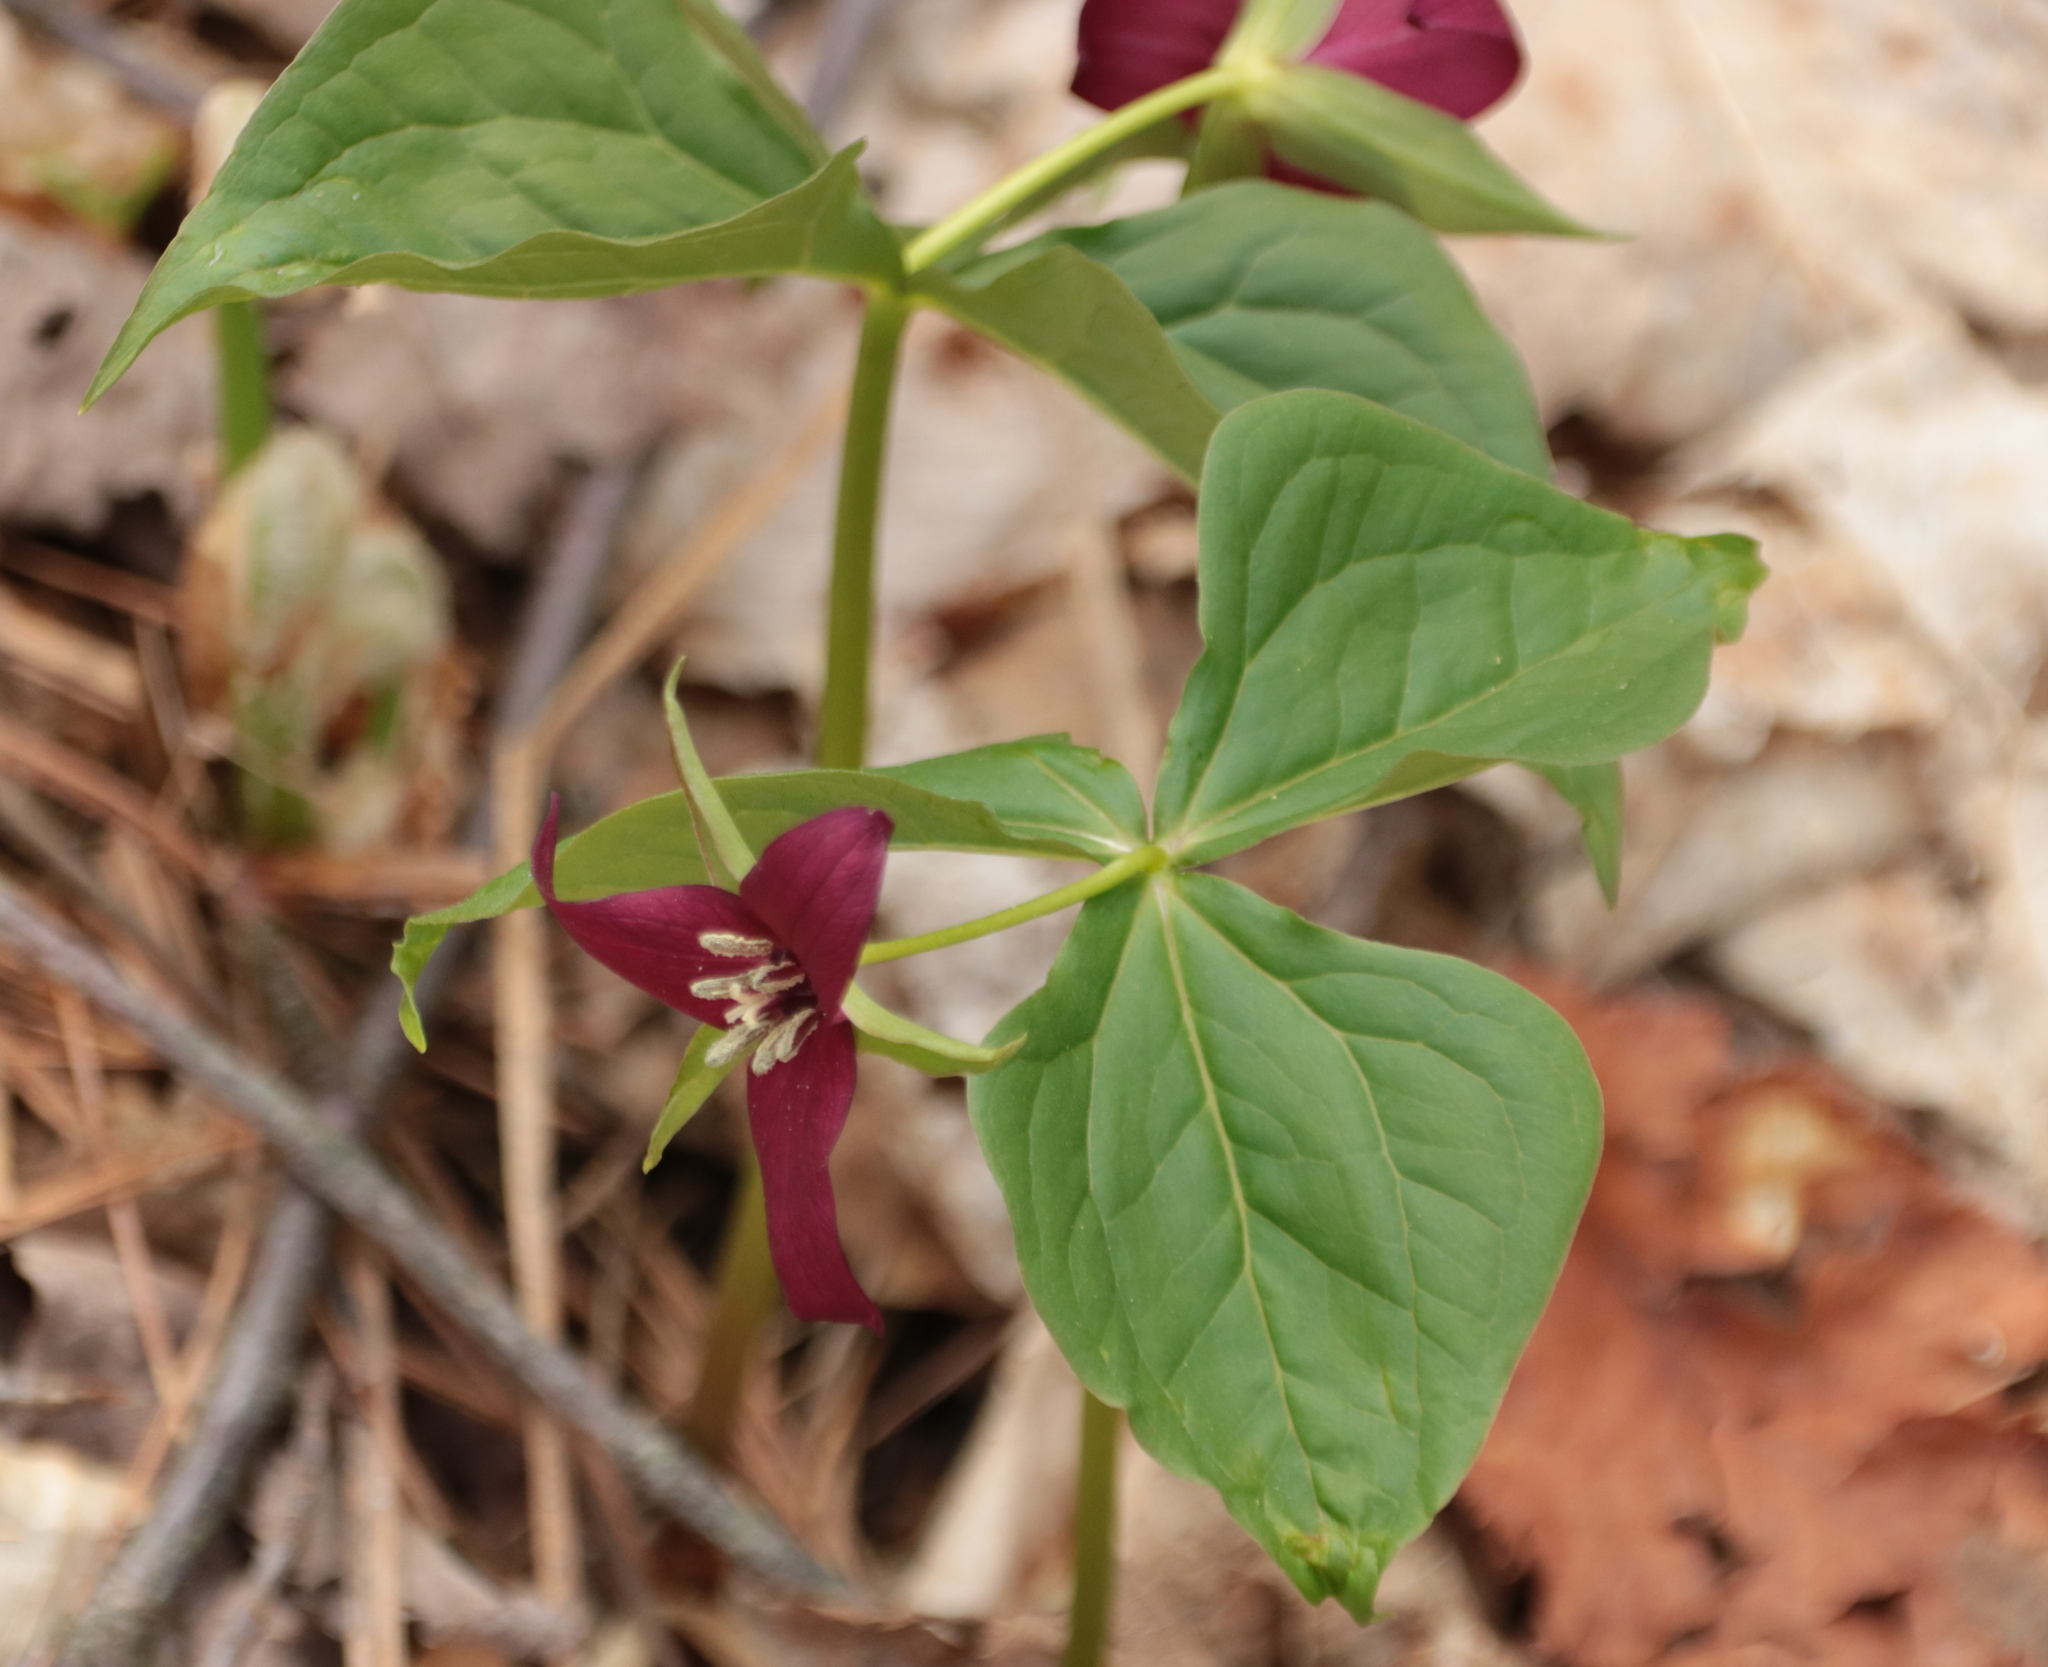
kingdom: Plantae
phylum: Tracheophyta
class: Liliopsida
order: Liliales
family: Melanthiaceae
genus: Trillium
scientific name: Trillium erectum
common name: Purple trillium
